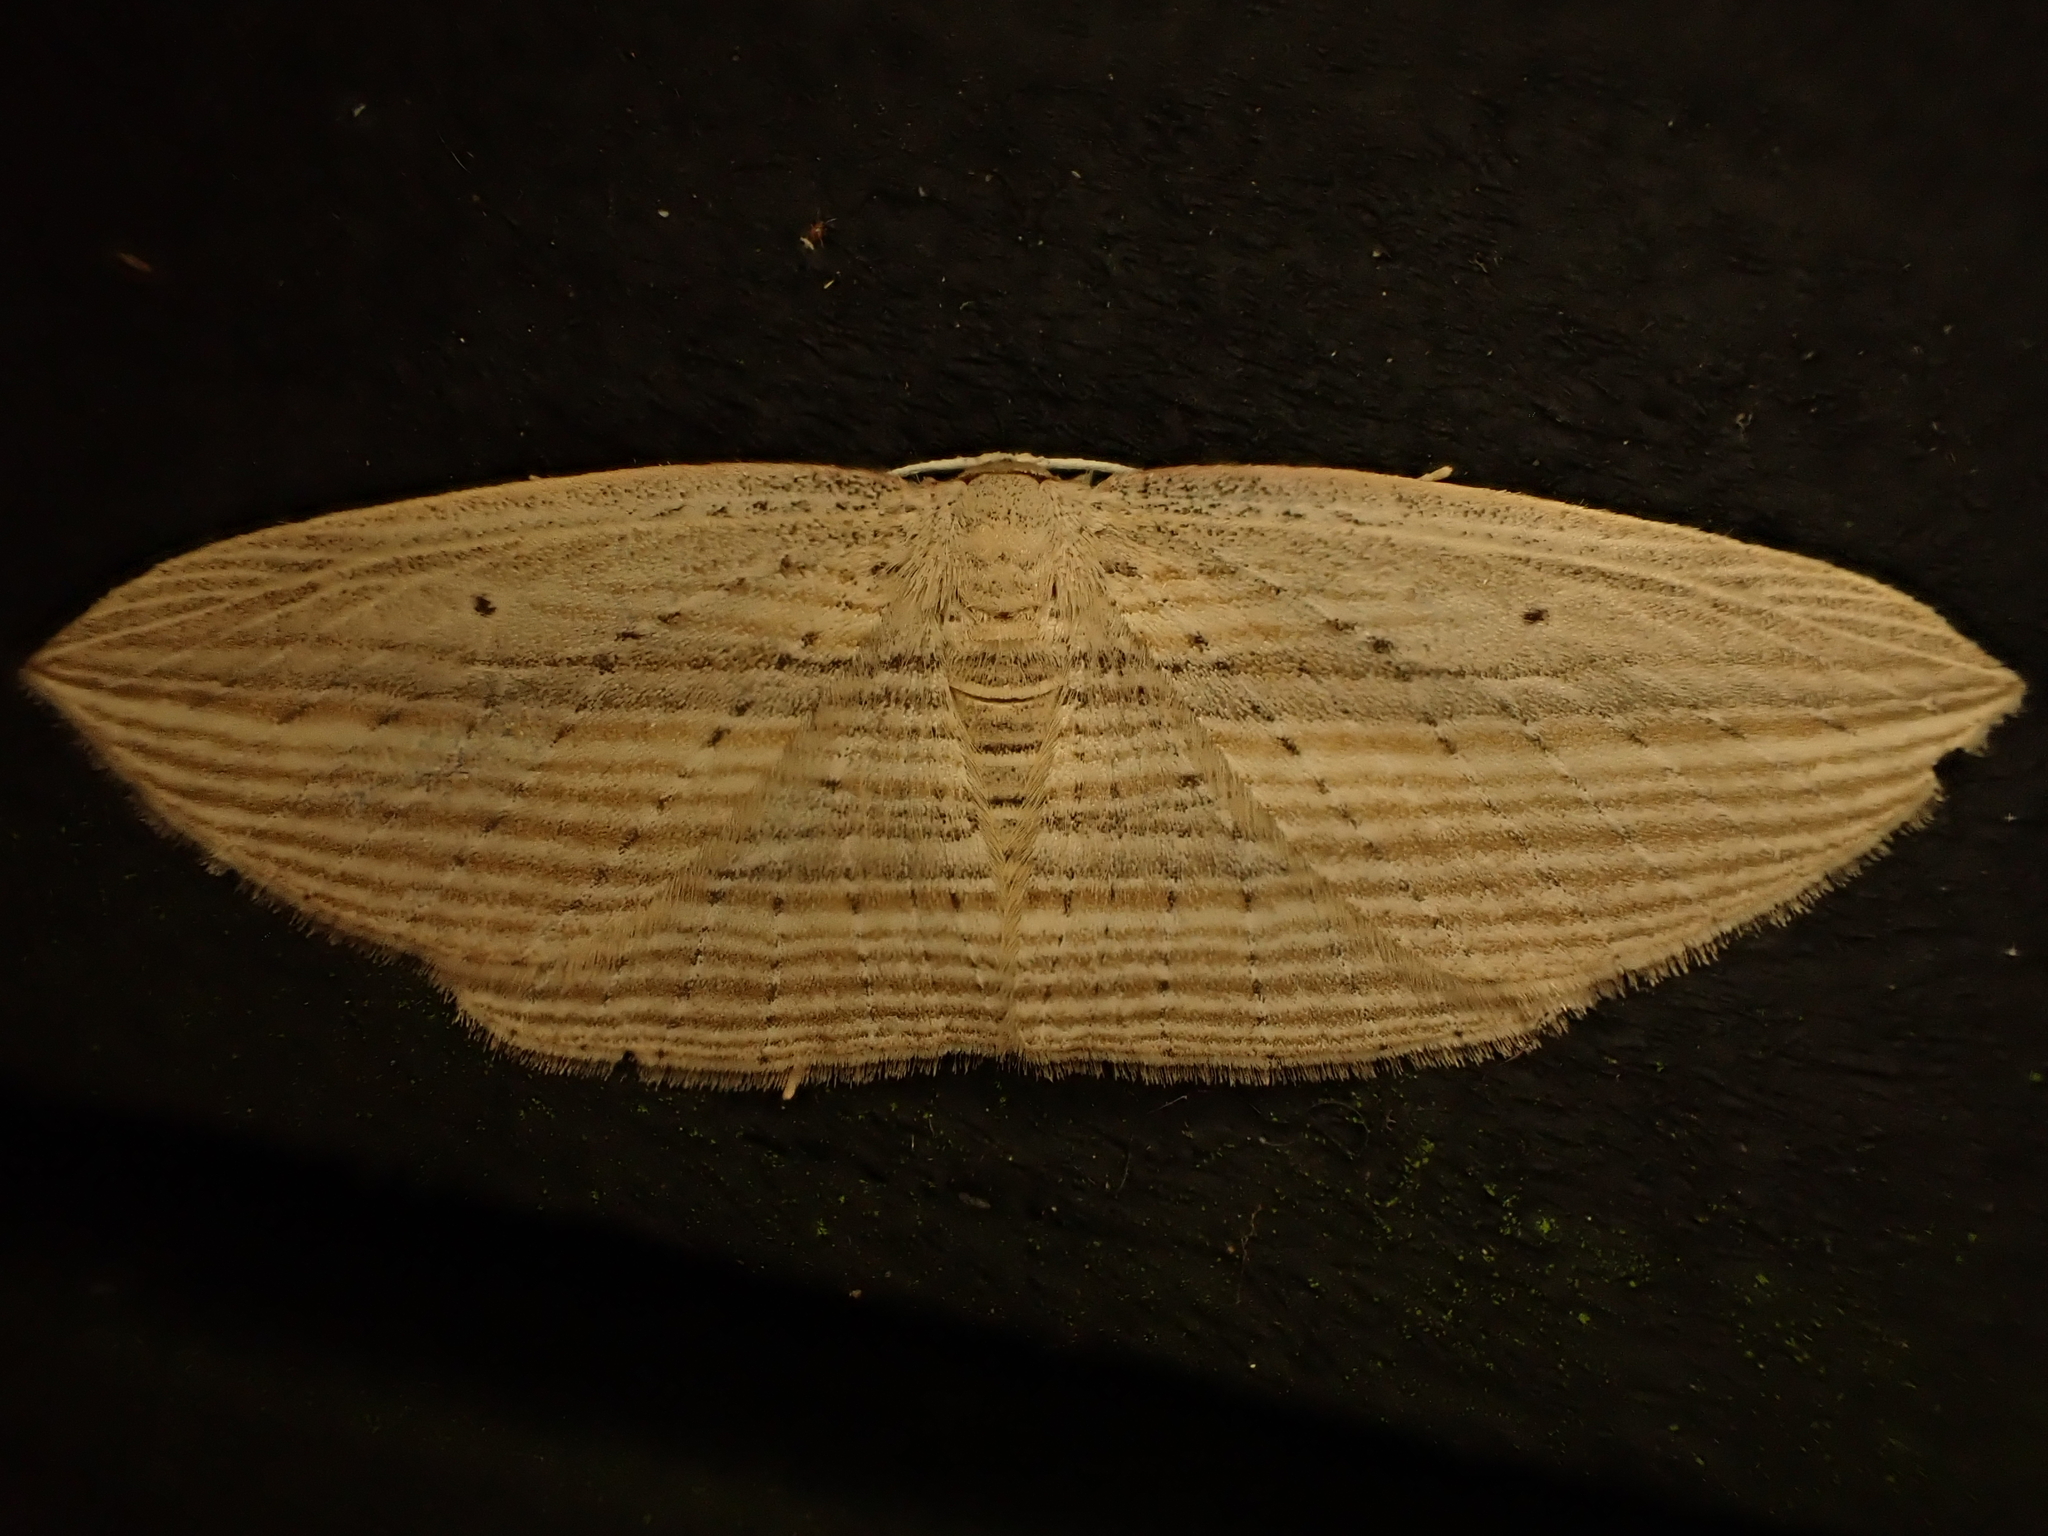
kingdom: Animalia
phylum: Arthropoda
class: Insecta
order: Lepidoptera
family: Geometridae
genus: Epiphryne
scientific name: Epiphryne verriculata
